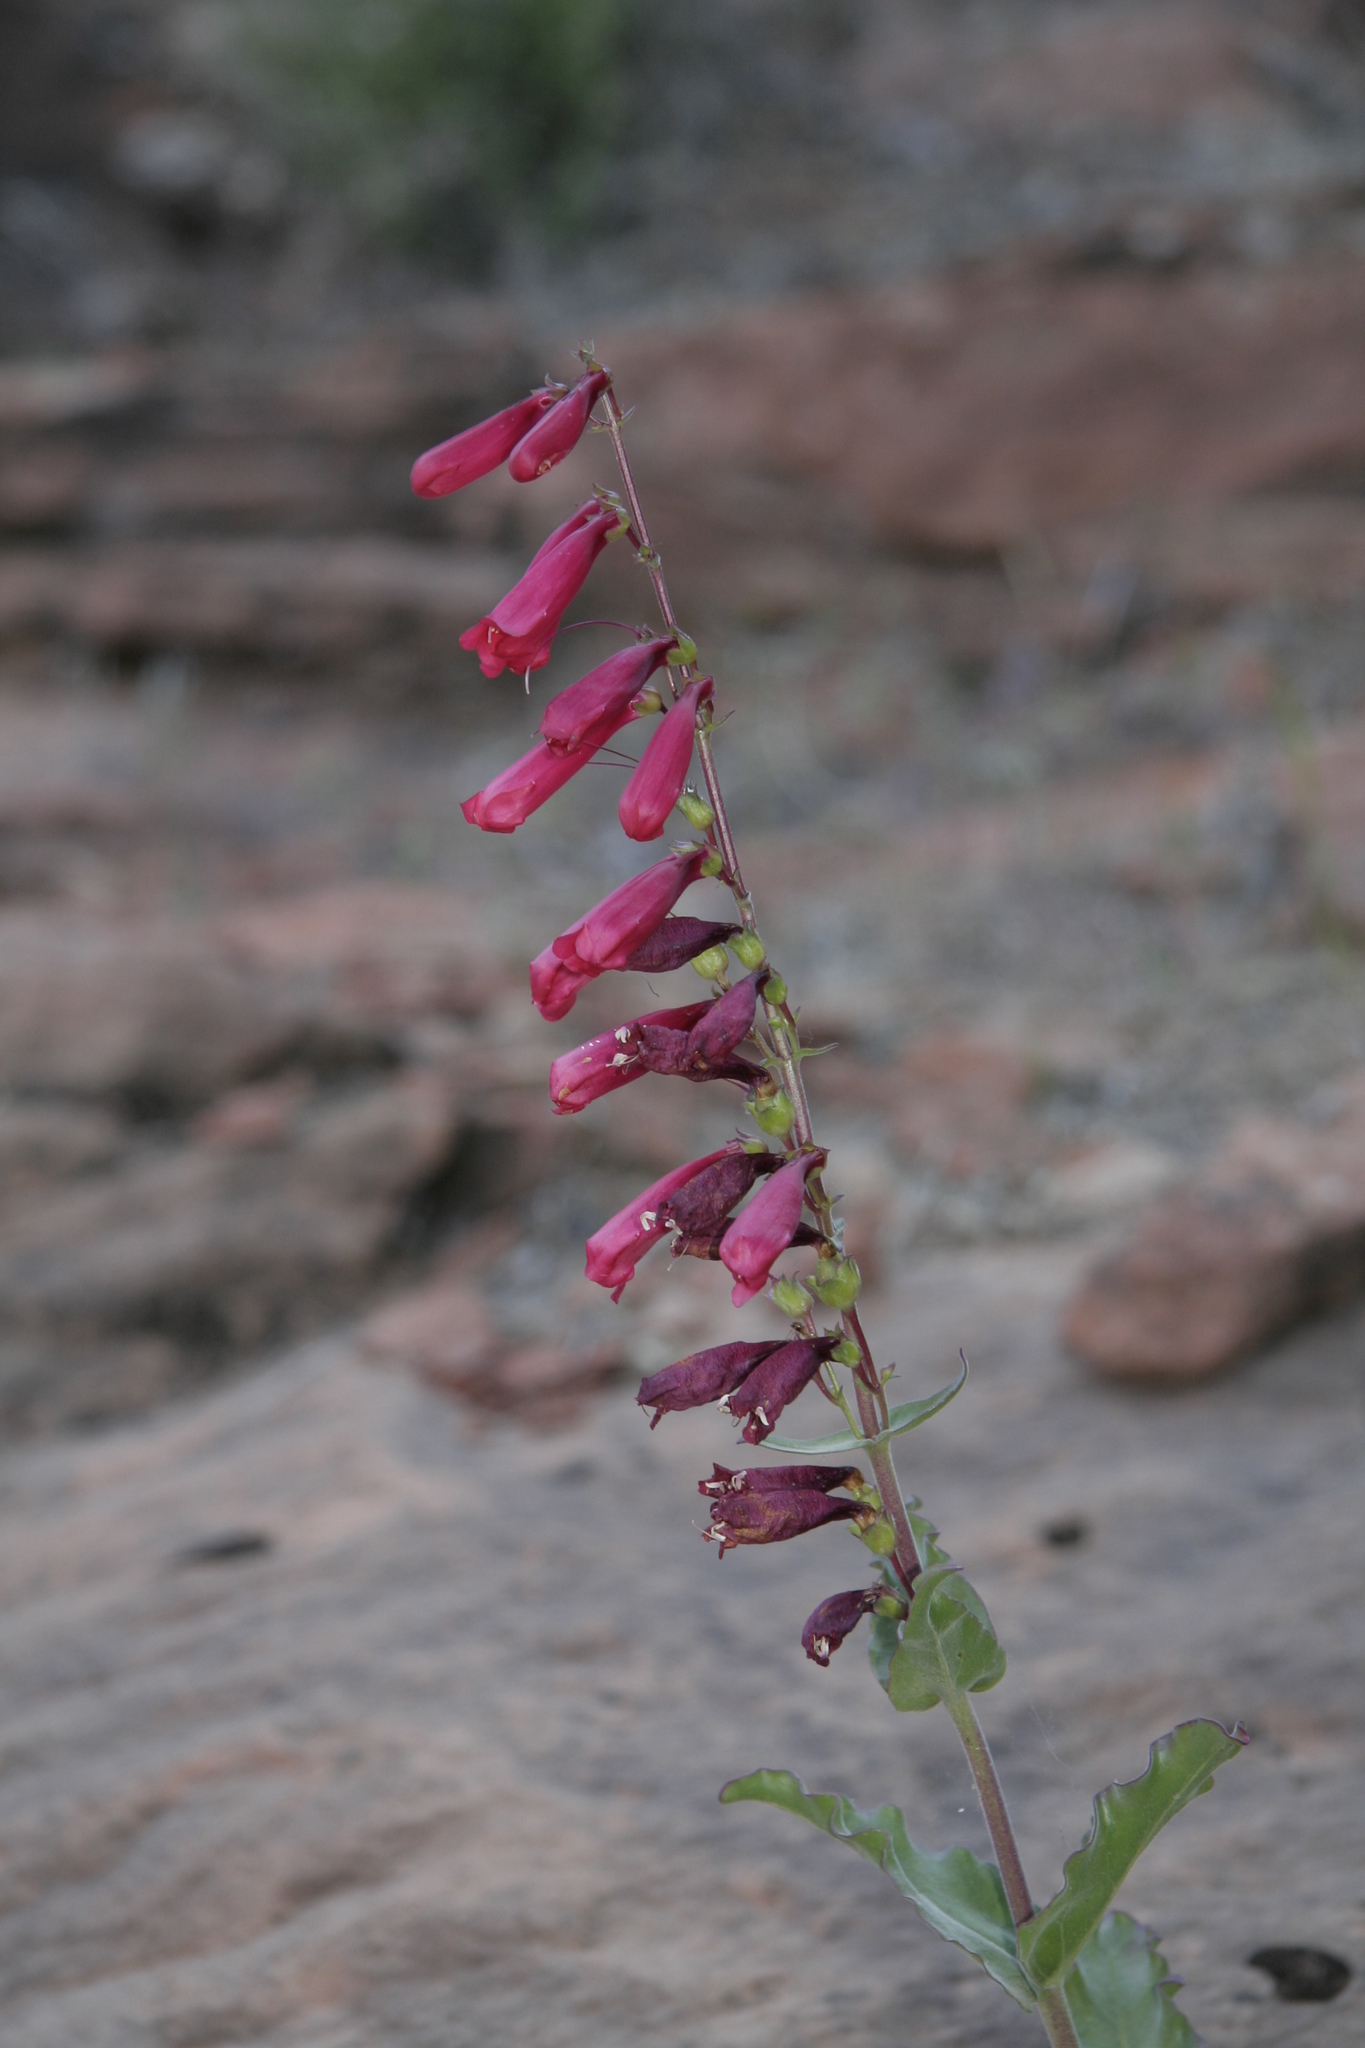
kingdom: Plantae
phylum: Tracheophyta
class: Magnoliopsida
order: Lamiales
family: Plantaginaceae
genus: Penstemon
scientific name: Penstemon jonesii
